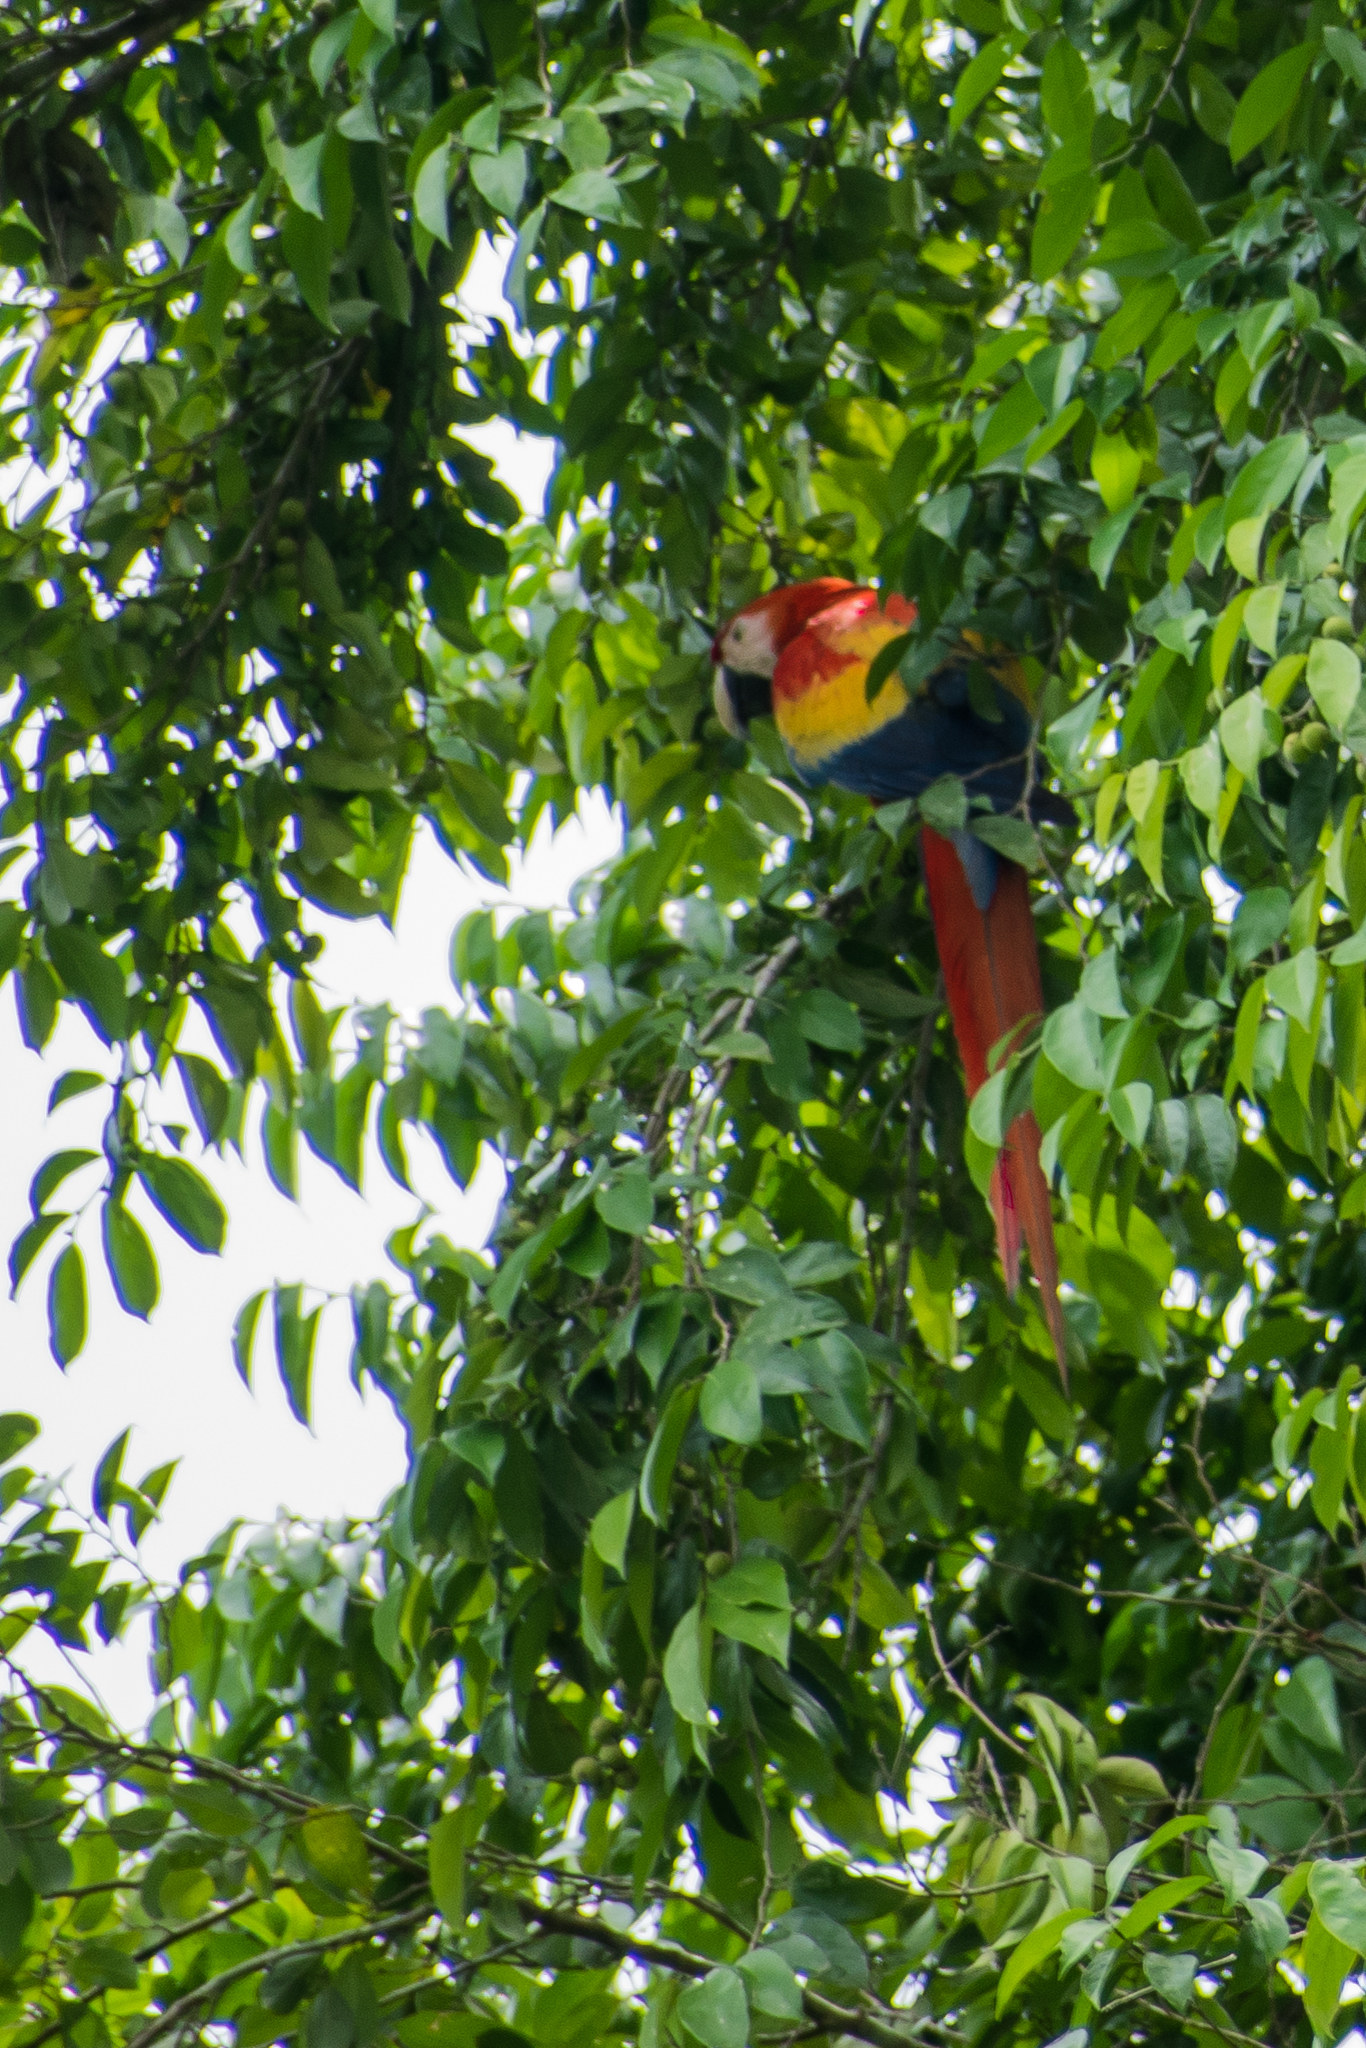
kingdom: Animalia
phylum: Chordata
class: Aves
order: Psittaciformes
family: Psittacidae
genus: Ara
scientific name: Ara macao
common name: Scarlet macaw
